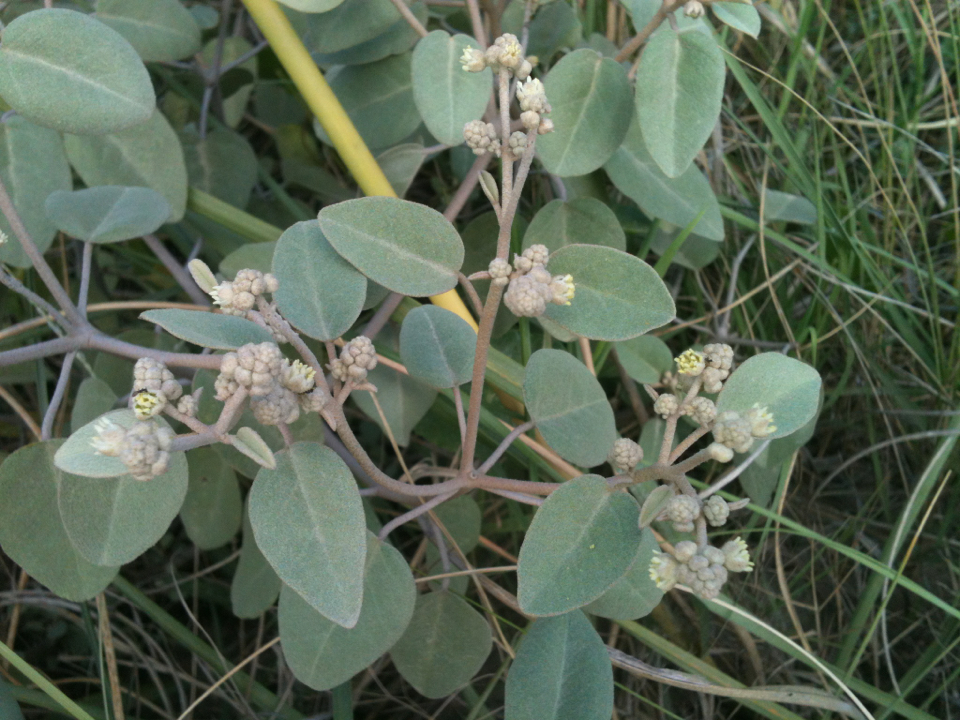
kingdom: Plantae
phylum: Tracheophyta
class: Magnoliopsida
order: Malpighiales
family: Euphorbiaceae
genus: Croton
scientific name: Croton punctatus
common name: Beach-tea
